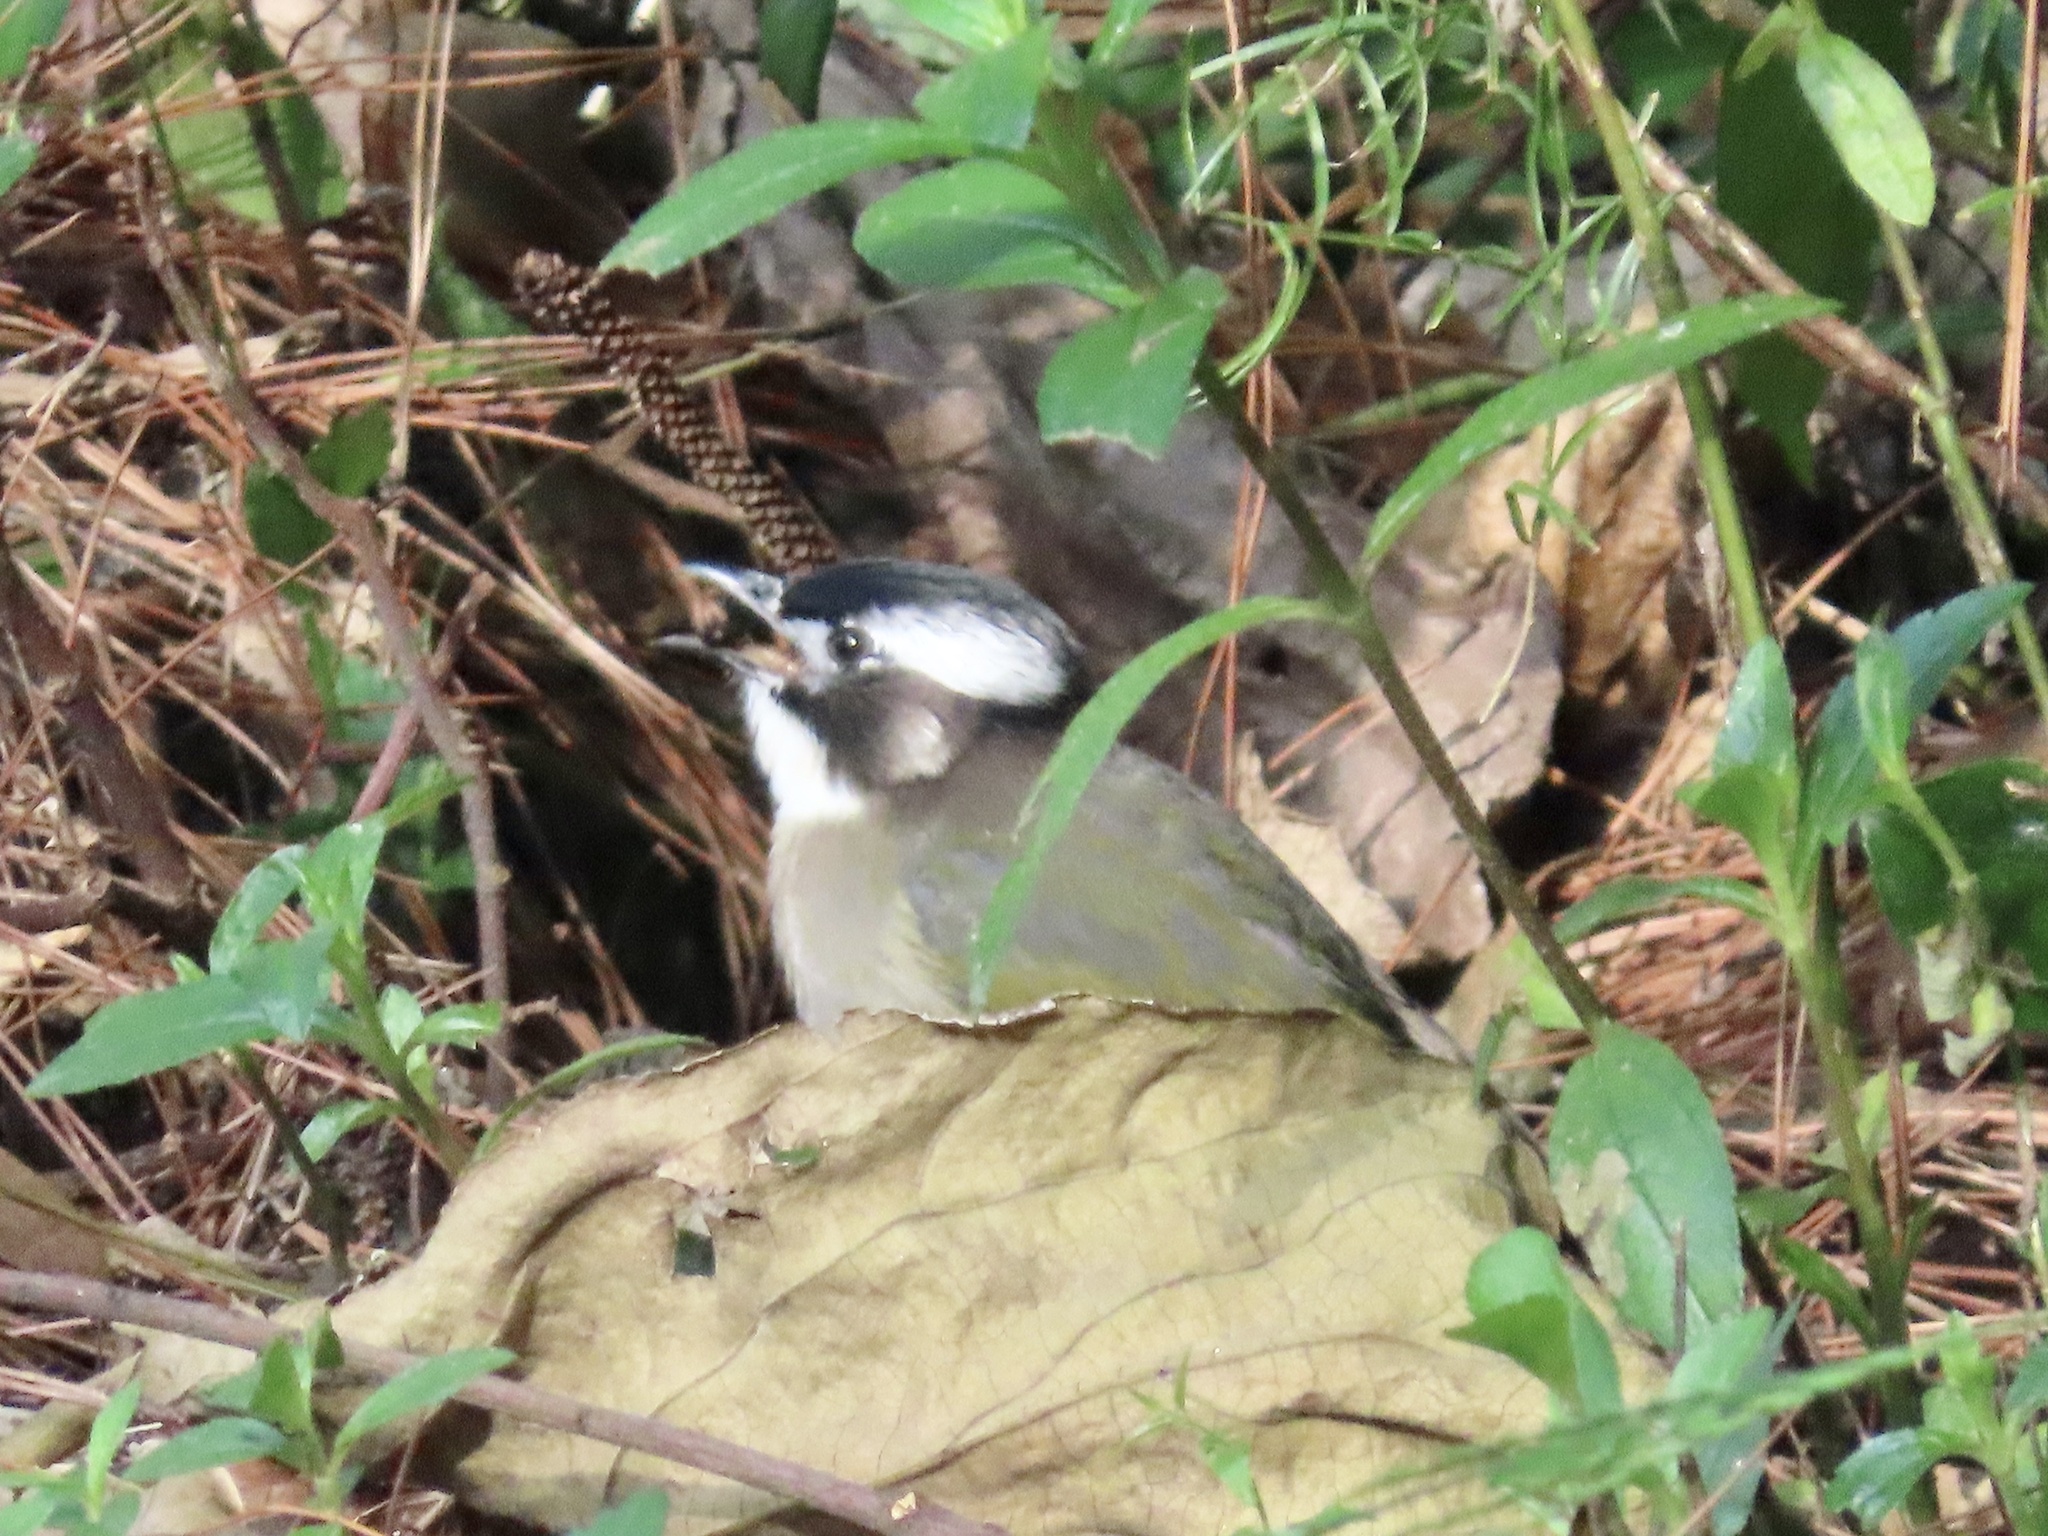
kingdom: Animalia
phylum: Chordata
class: Aves
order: Passeriformes
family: Pycnonotidae
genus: Pycnonotus
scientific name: Pycnonotus sinensis
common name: Light-vented bulbul
